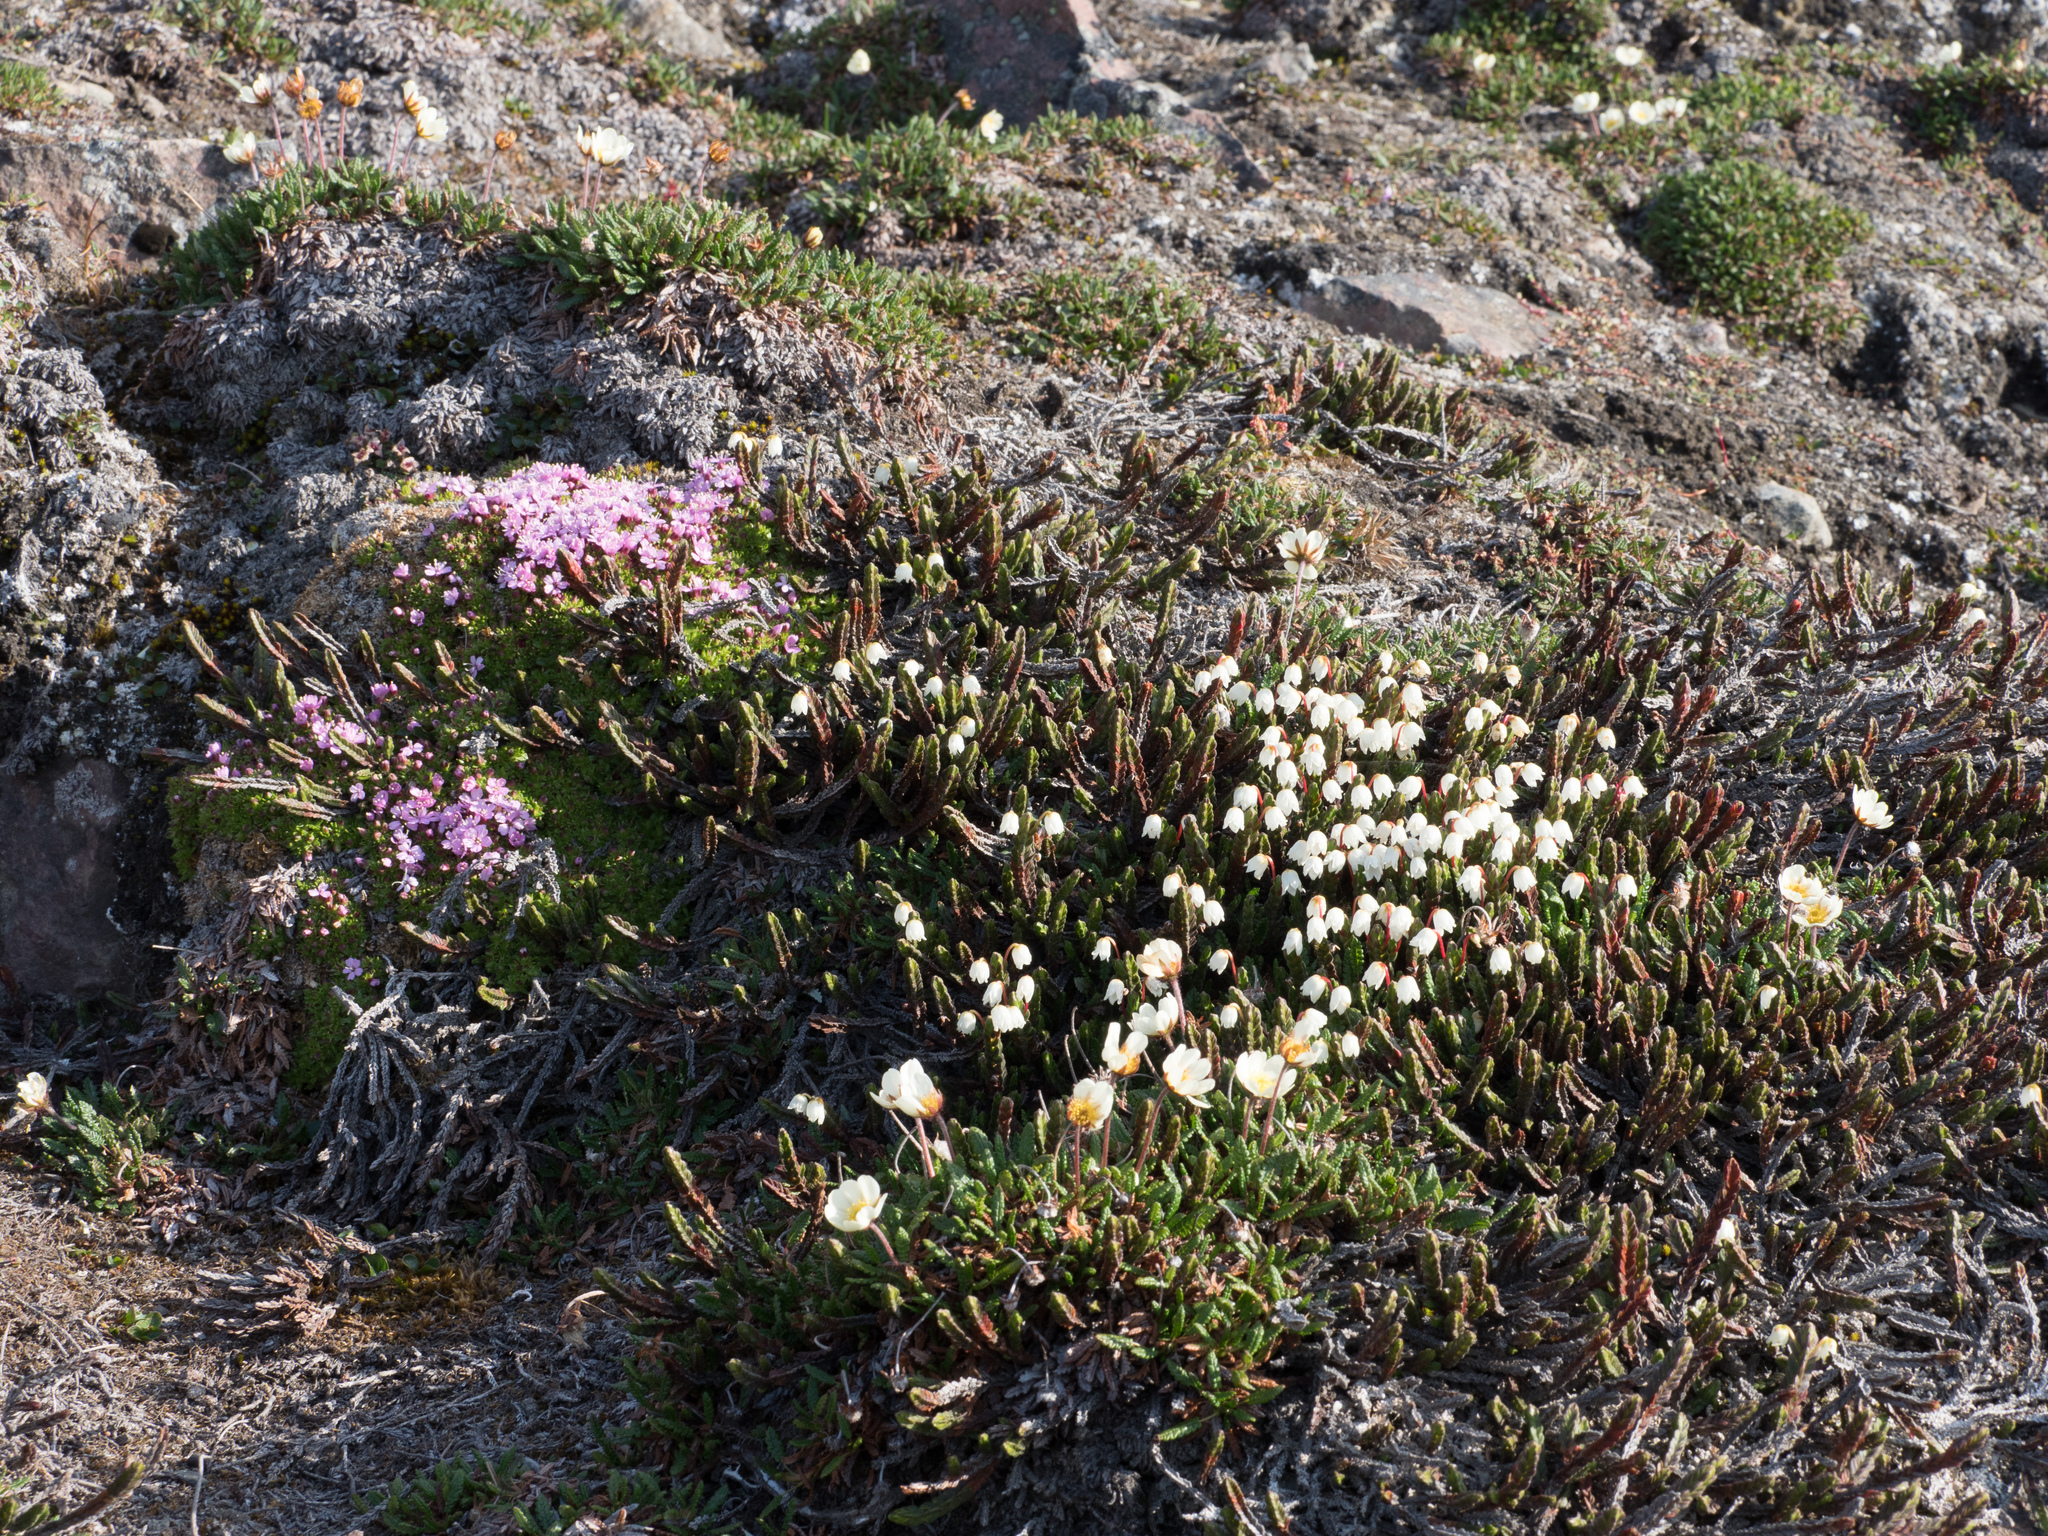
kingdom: Plantae
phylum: Tracheophyta
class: Magnoliopsida
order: Rosales
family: Rosaceae
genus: Dryas
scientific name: Dryas octopetala
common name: Eight-petal mountain-avens
